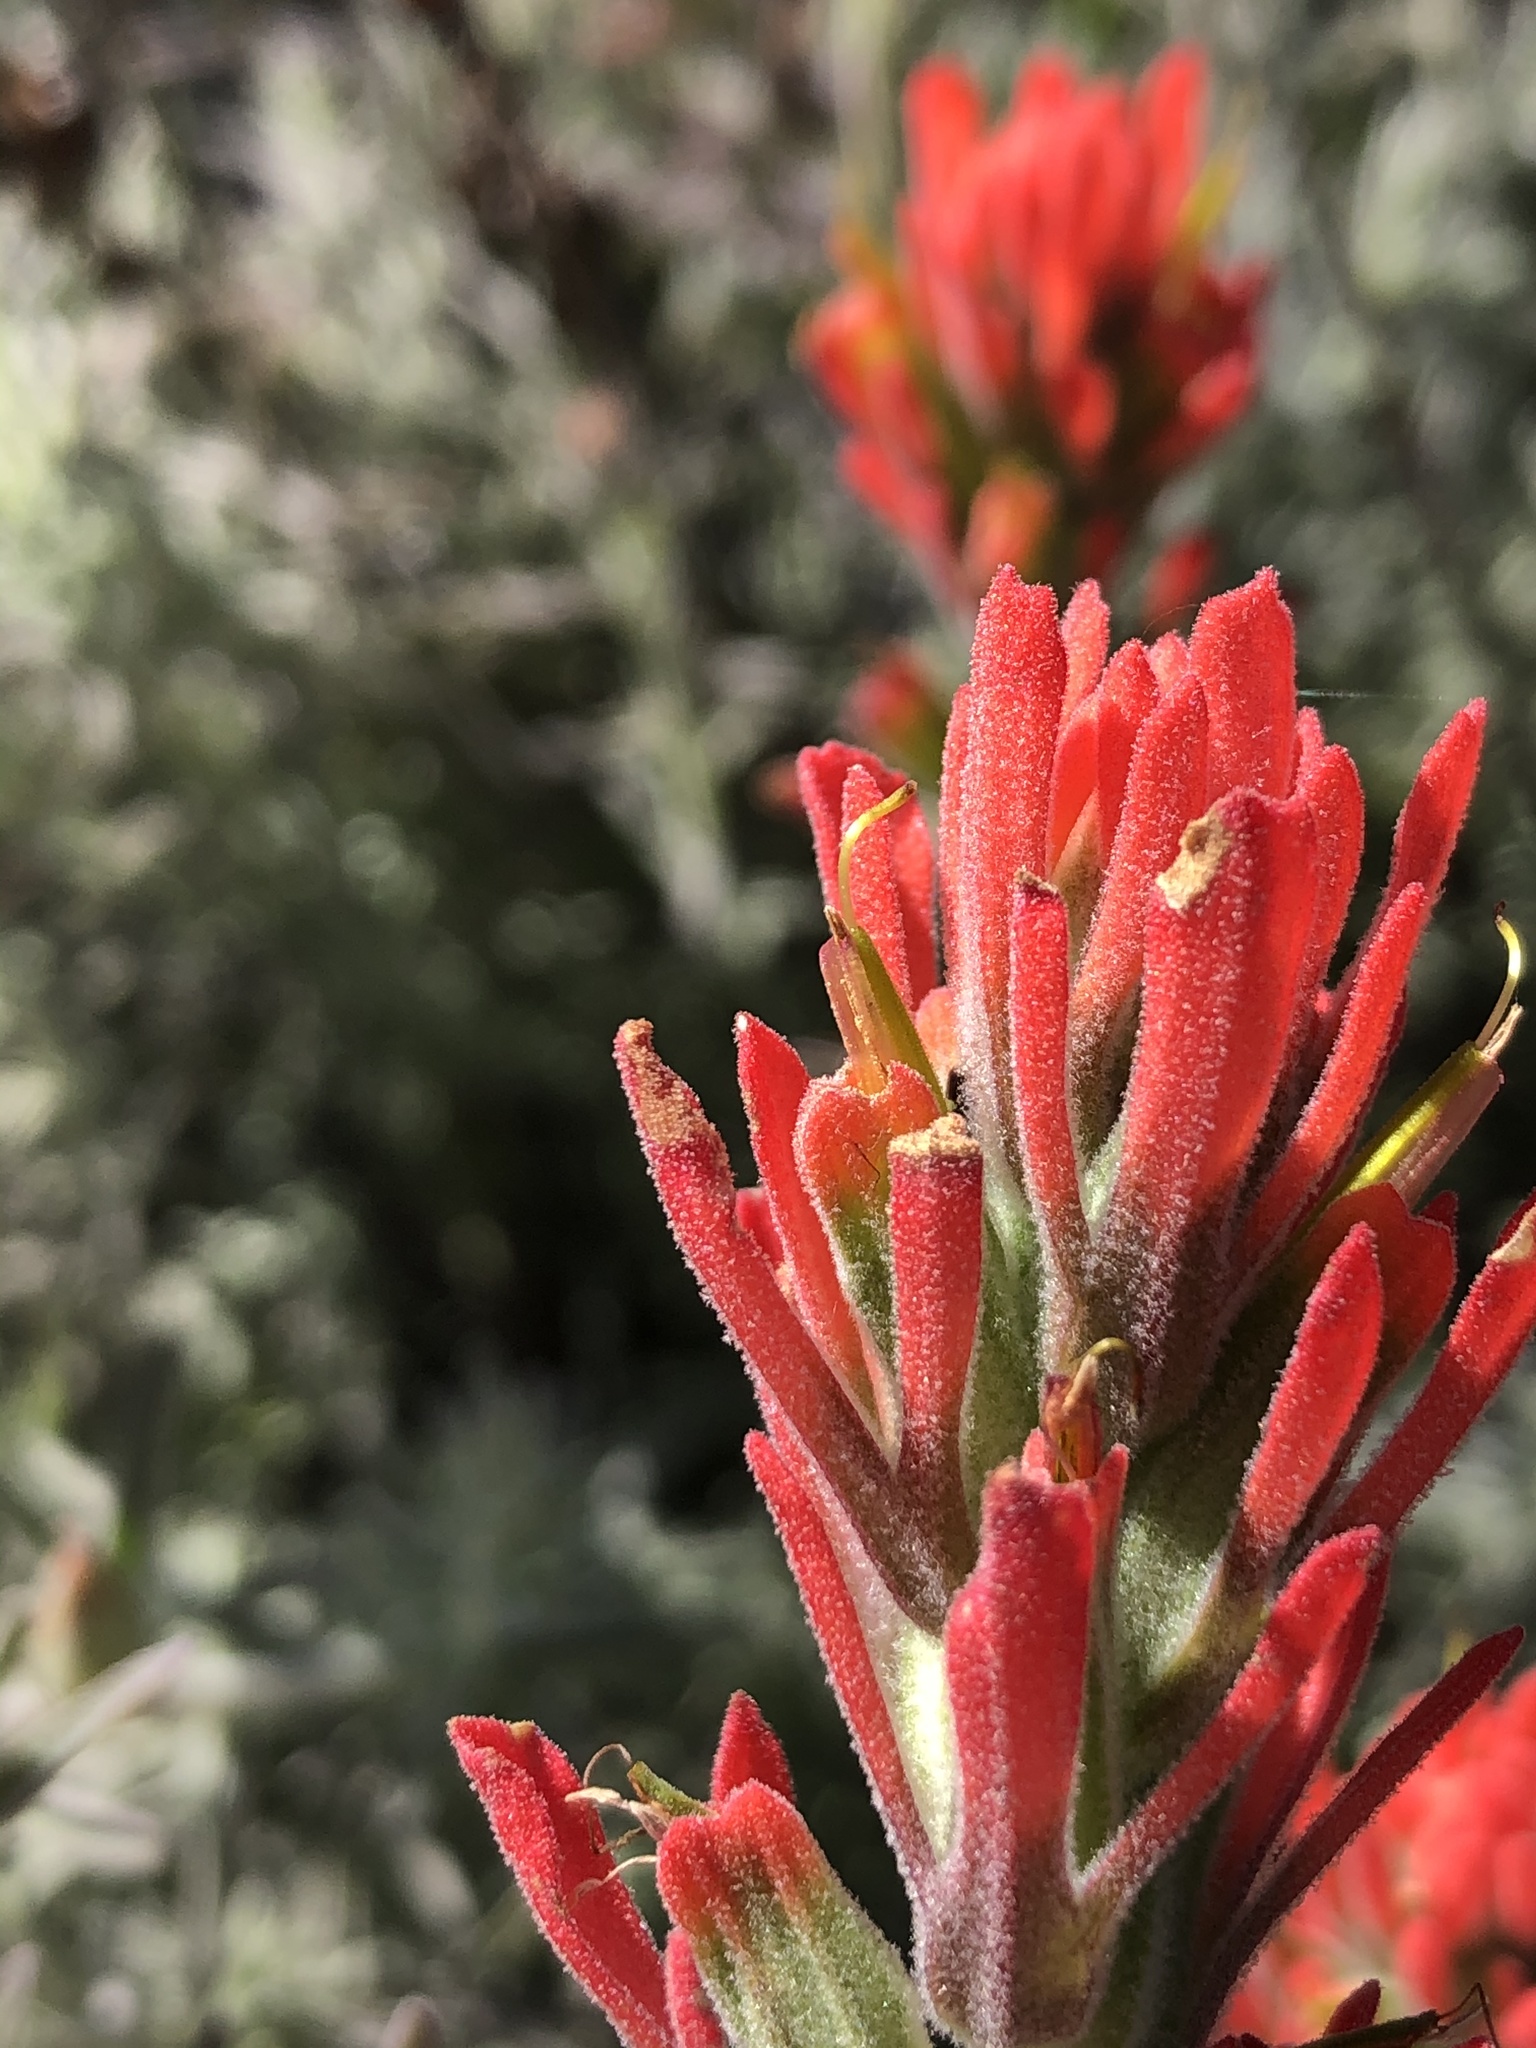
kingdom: Plantae
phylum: Tracheophyta
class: Magnoliopsida
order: Lamiales
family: Orobanchaceae
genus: Castilleja
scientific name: Castilleja foliolosa
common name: Woolly indian paintbrush
